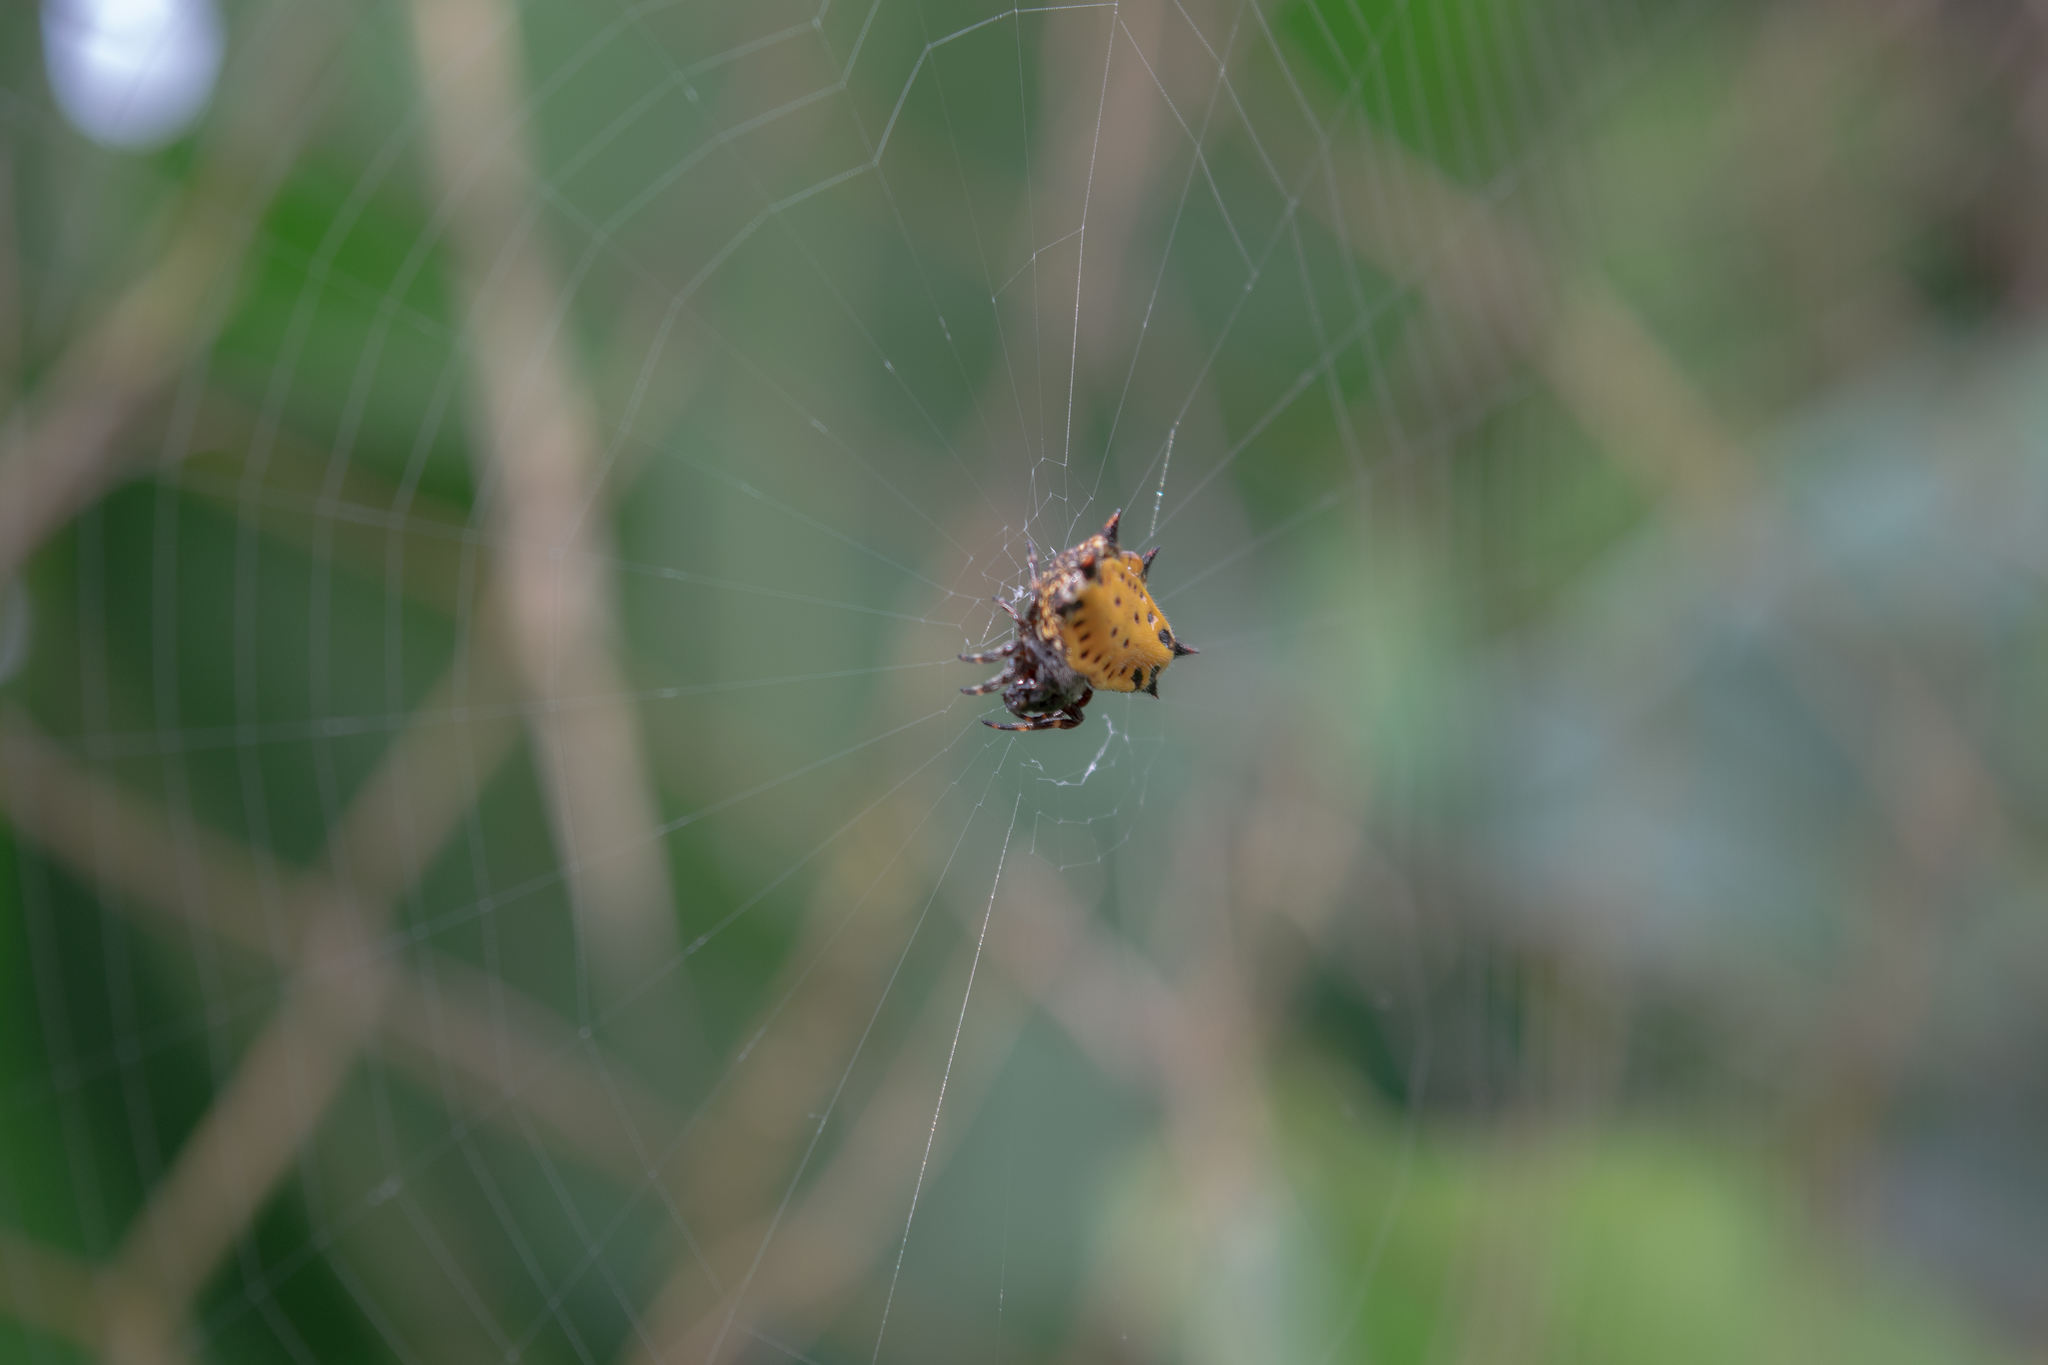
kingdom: Animalia
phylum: Arthropoda
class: Arachnida
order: Araneae
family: Araneidae
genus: Gasteracantha
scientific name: Gasteracantha cancriformis
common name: Orb weavers
